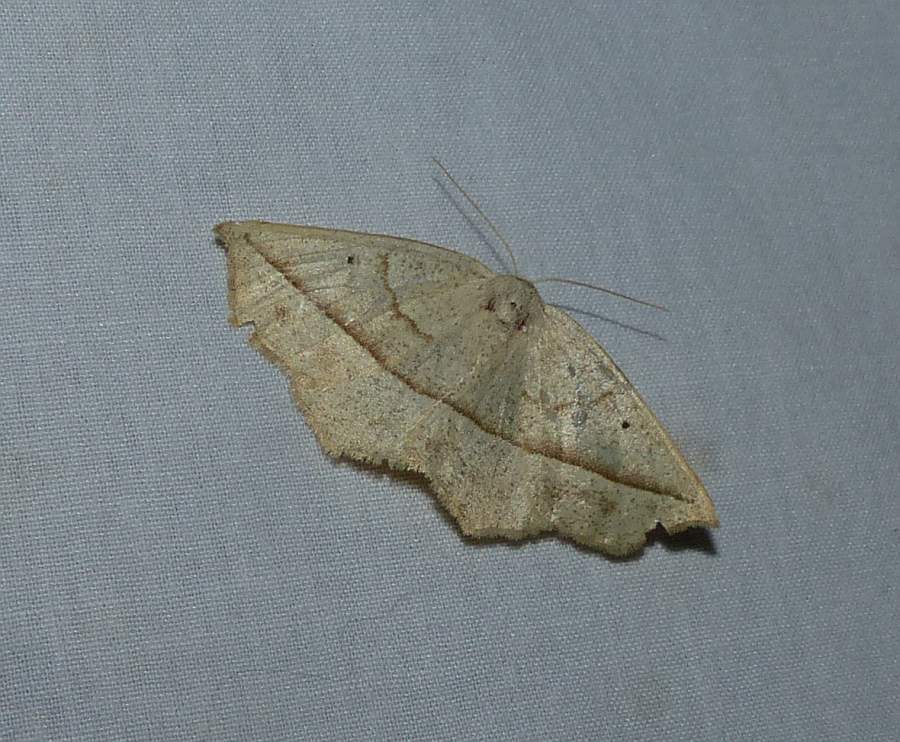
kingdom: Animalia
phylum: Arthropoda
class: Insecta
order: Lepidoptera
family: Geometridae
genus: Eusarca
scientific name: Eusarca confusaria
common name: Confused eusarca
